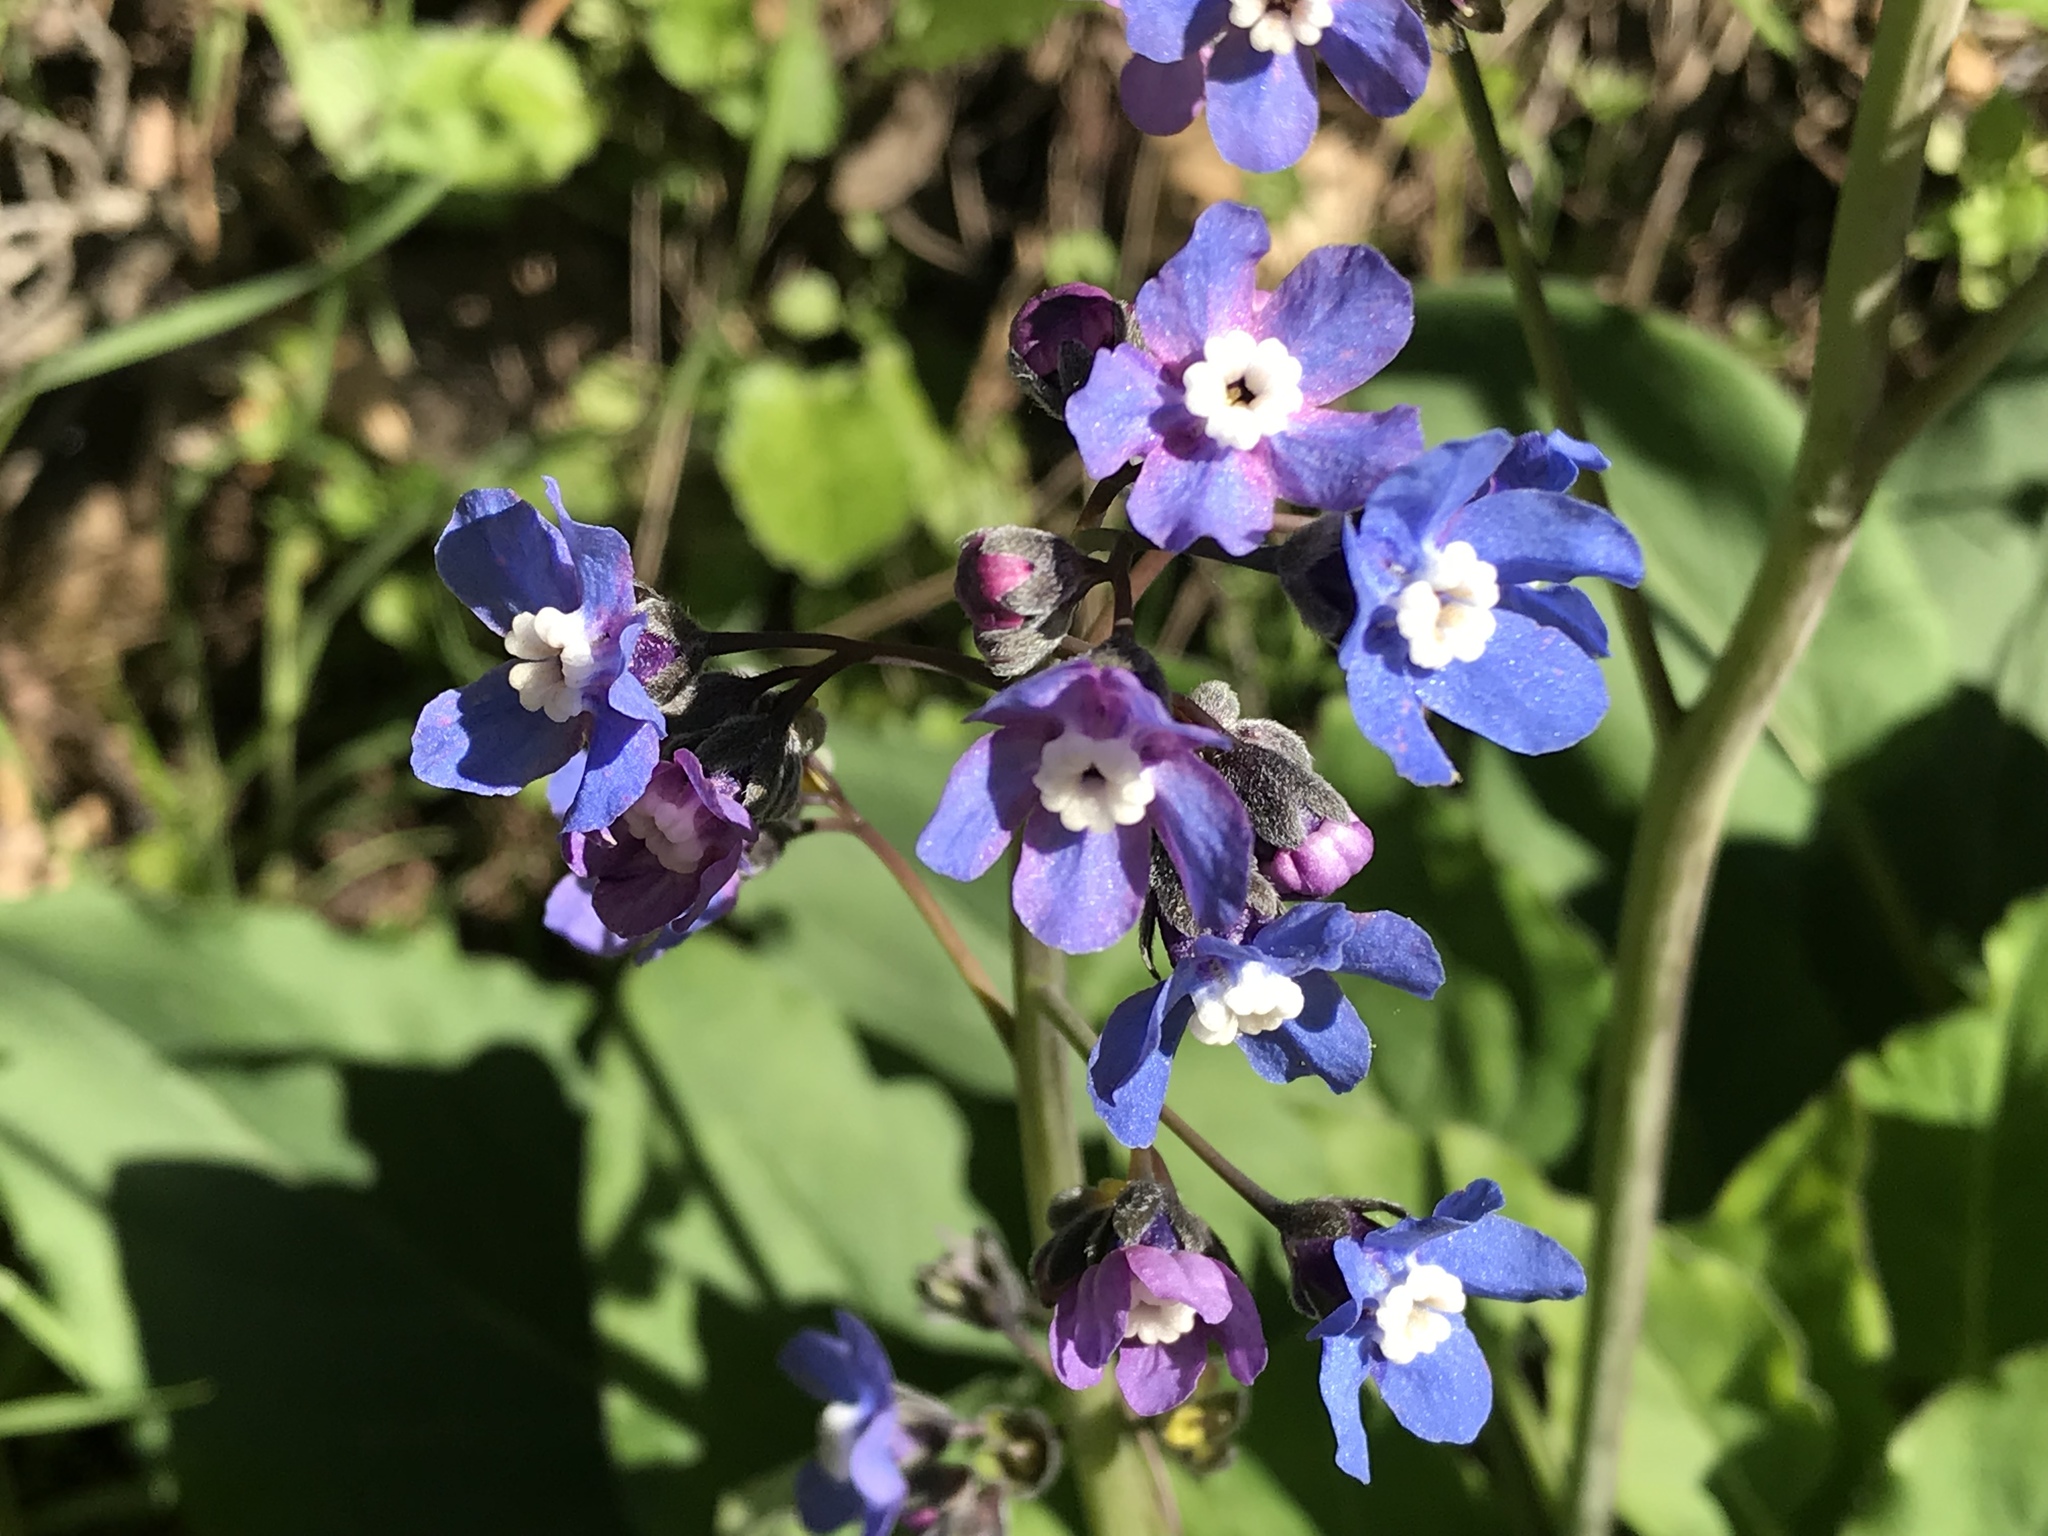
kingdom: Plantae
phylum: Tracheophyta
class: Magnoliopsida
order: Boraginales
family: Boraginaceae
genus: Adelinia
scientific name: Adelinia grande
